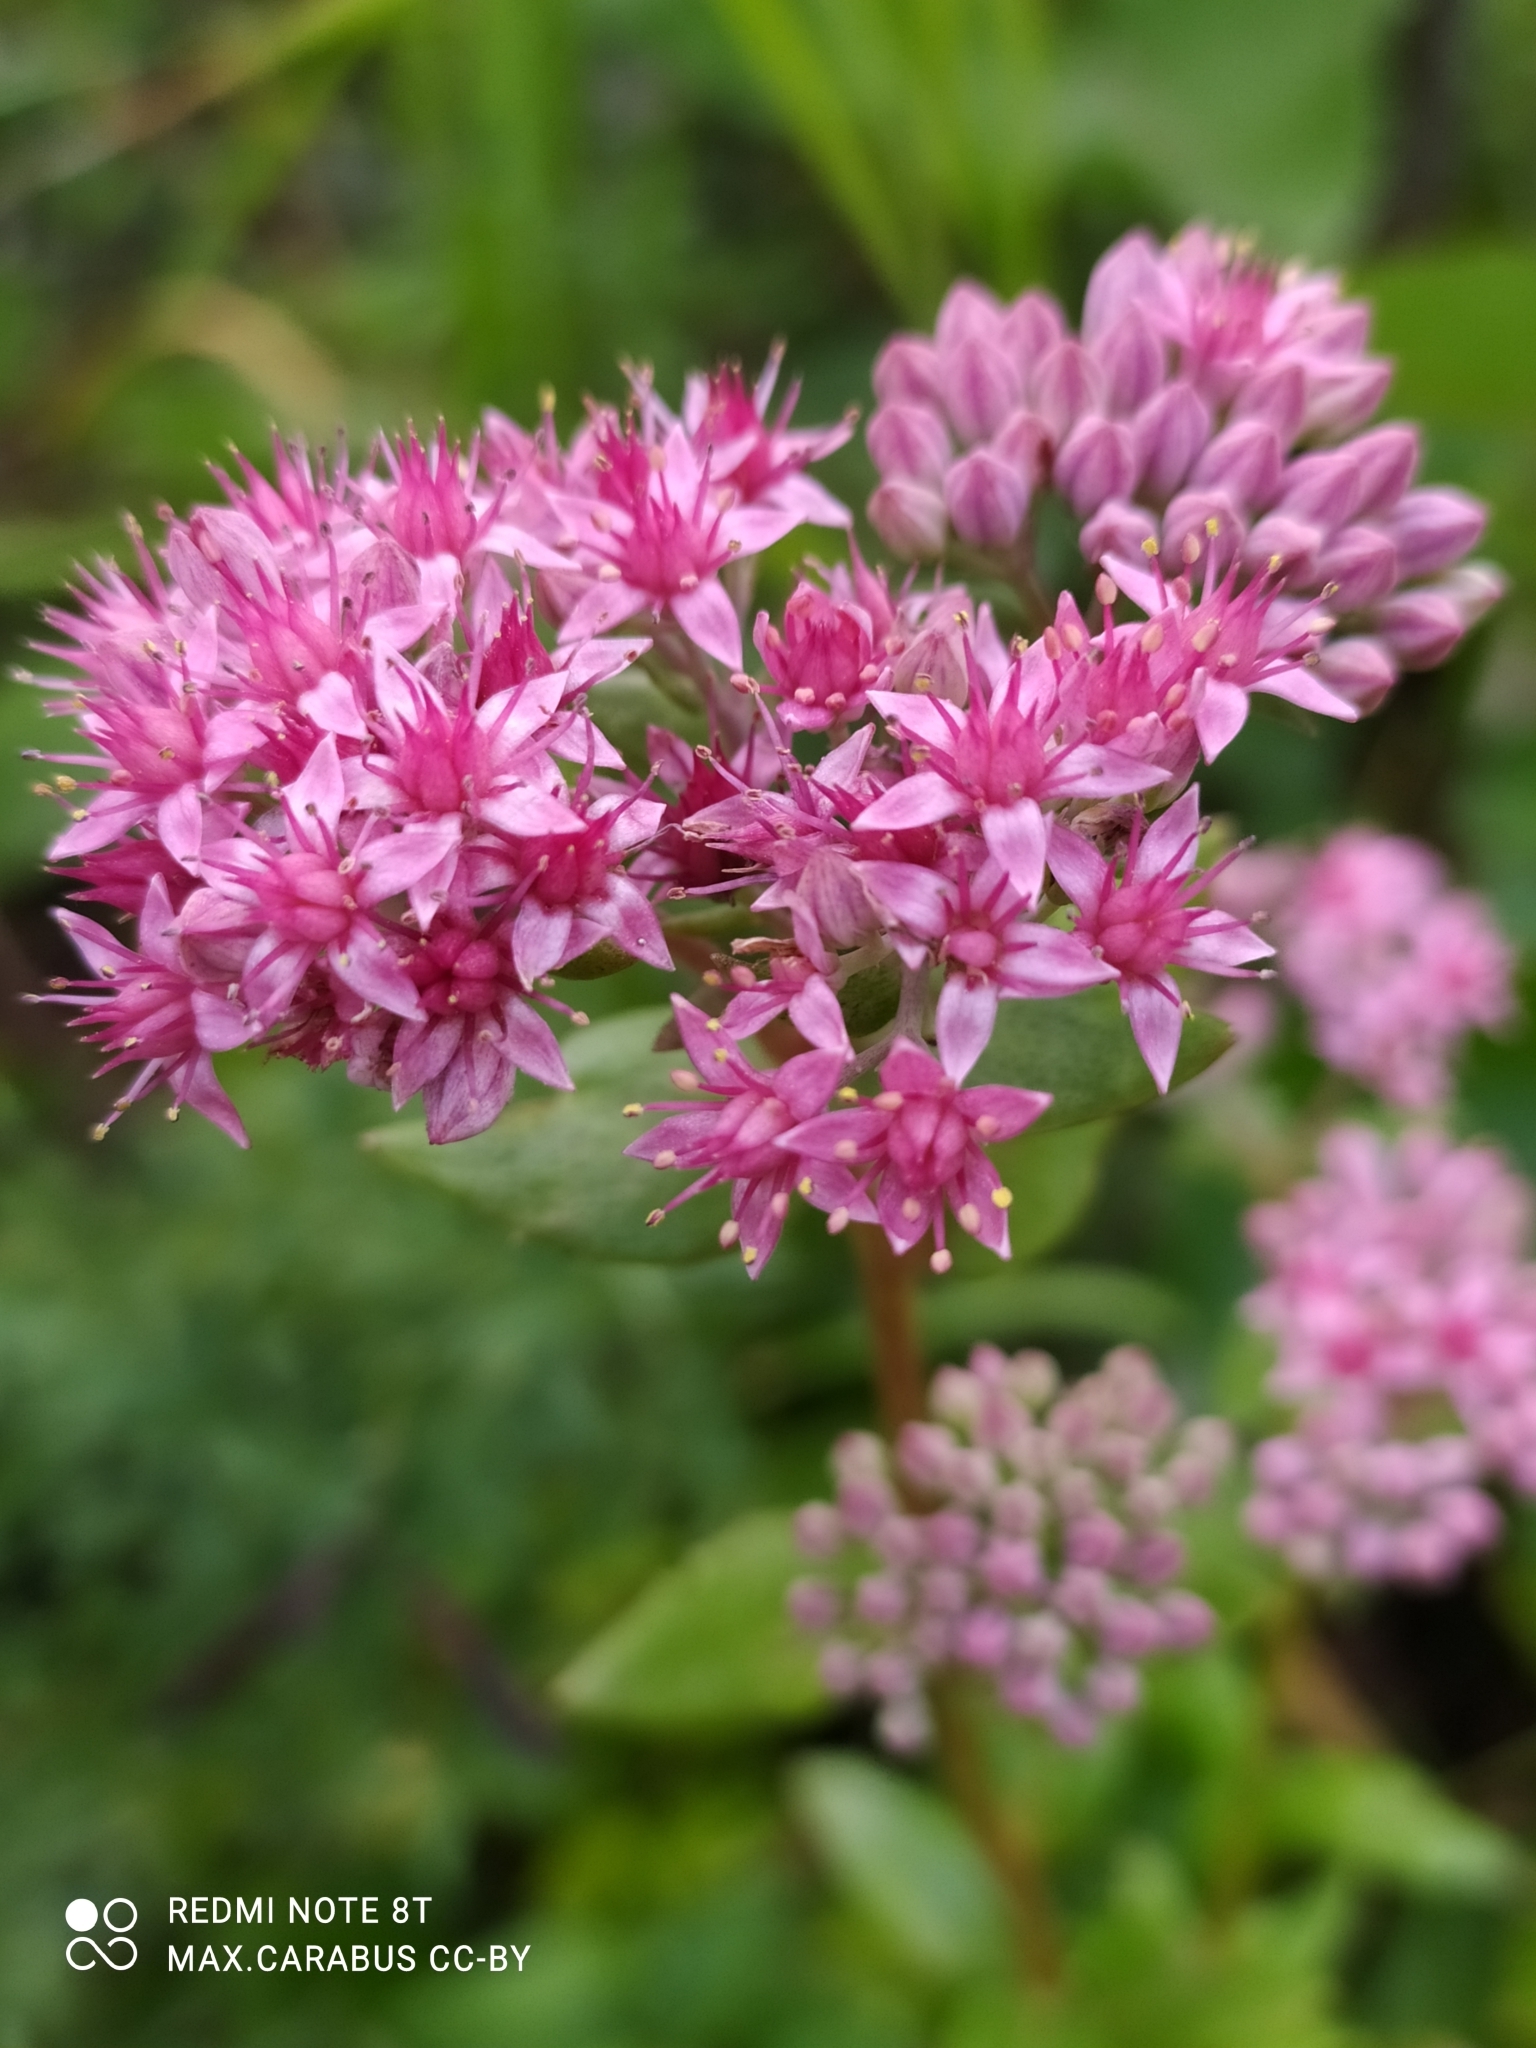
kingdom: Plantae
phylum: Tracheophyta
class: Magnoliopsida
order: Saxifragales
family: Crassulaceae
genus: Hylotelephium
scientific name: Hylotelephium telephium
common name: Live-forever
